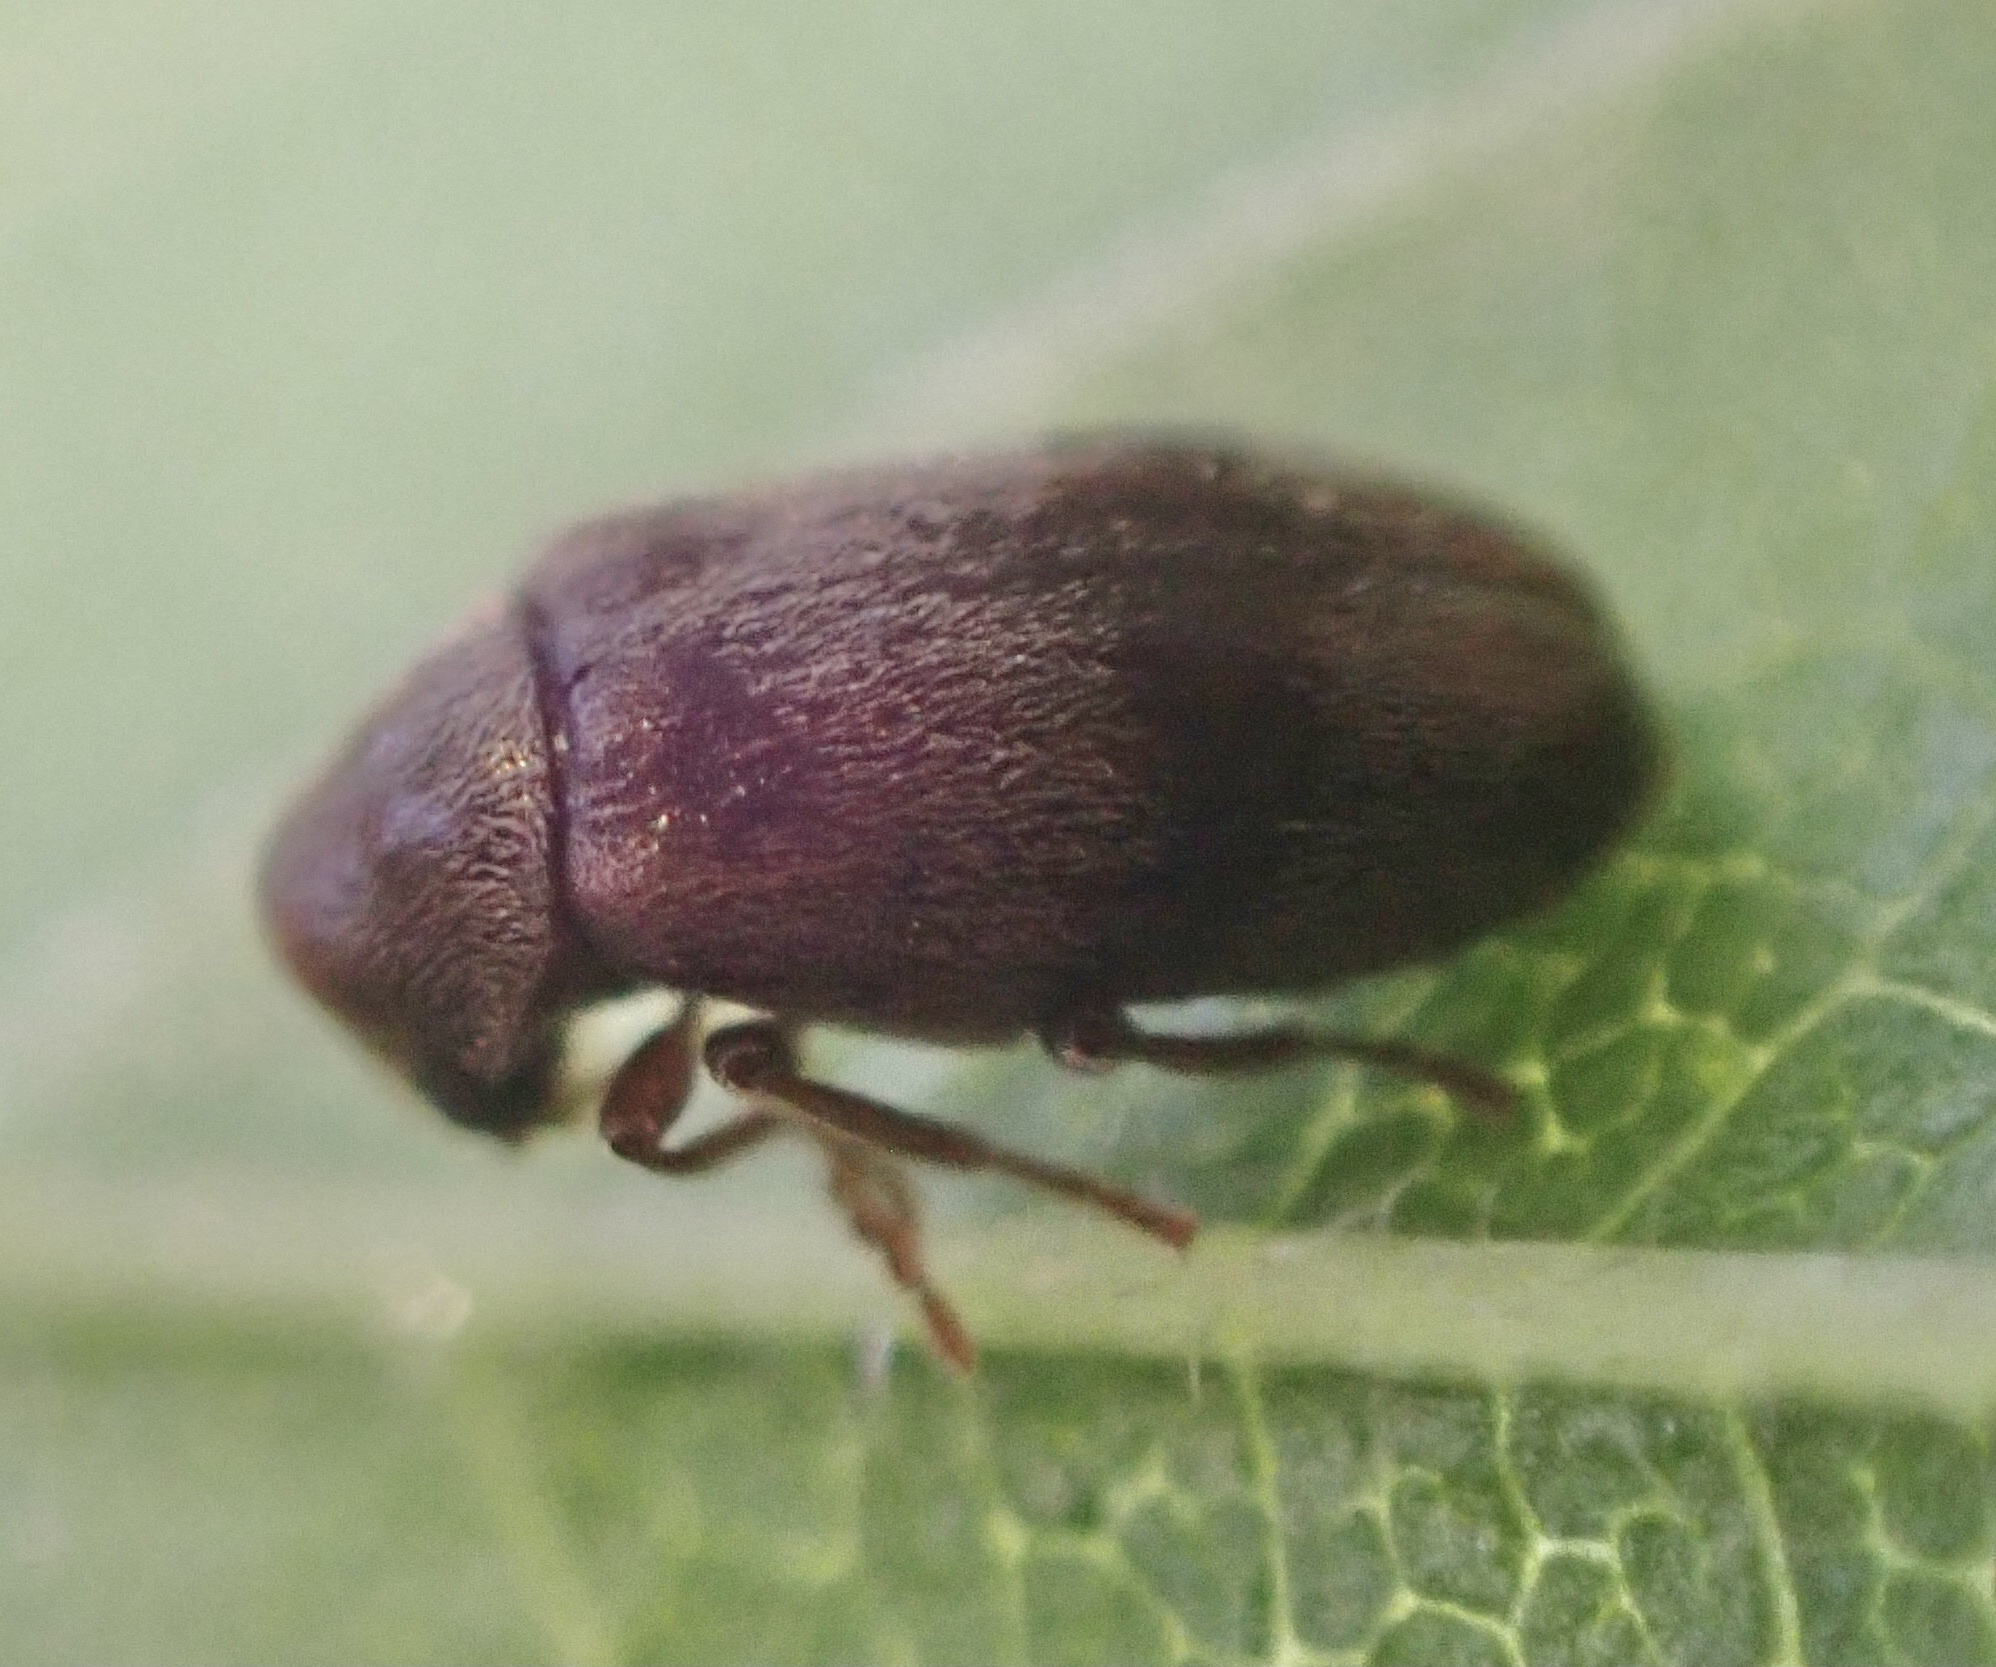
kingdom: Animalia
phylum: Arthropoda
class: Insecta
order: Coleoptera
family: Ptinidae
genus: Ochina
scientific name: Ochina ptinoides
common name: Ivy boring beetle
